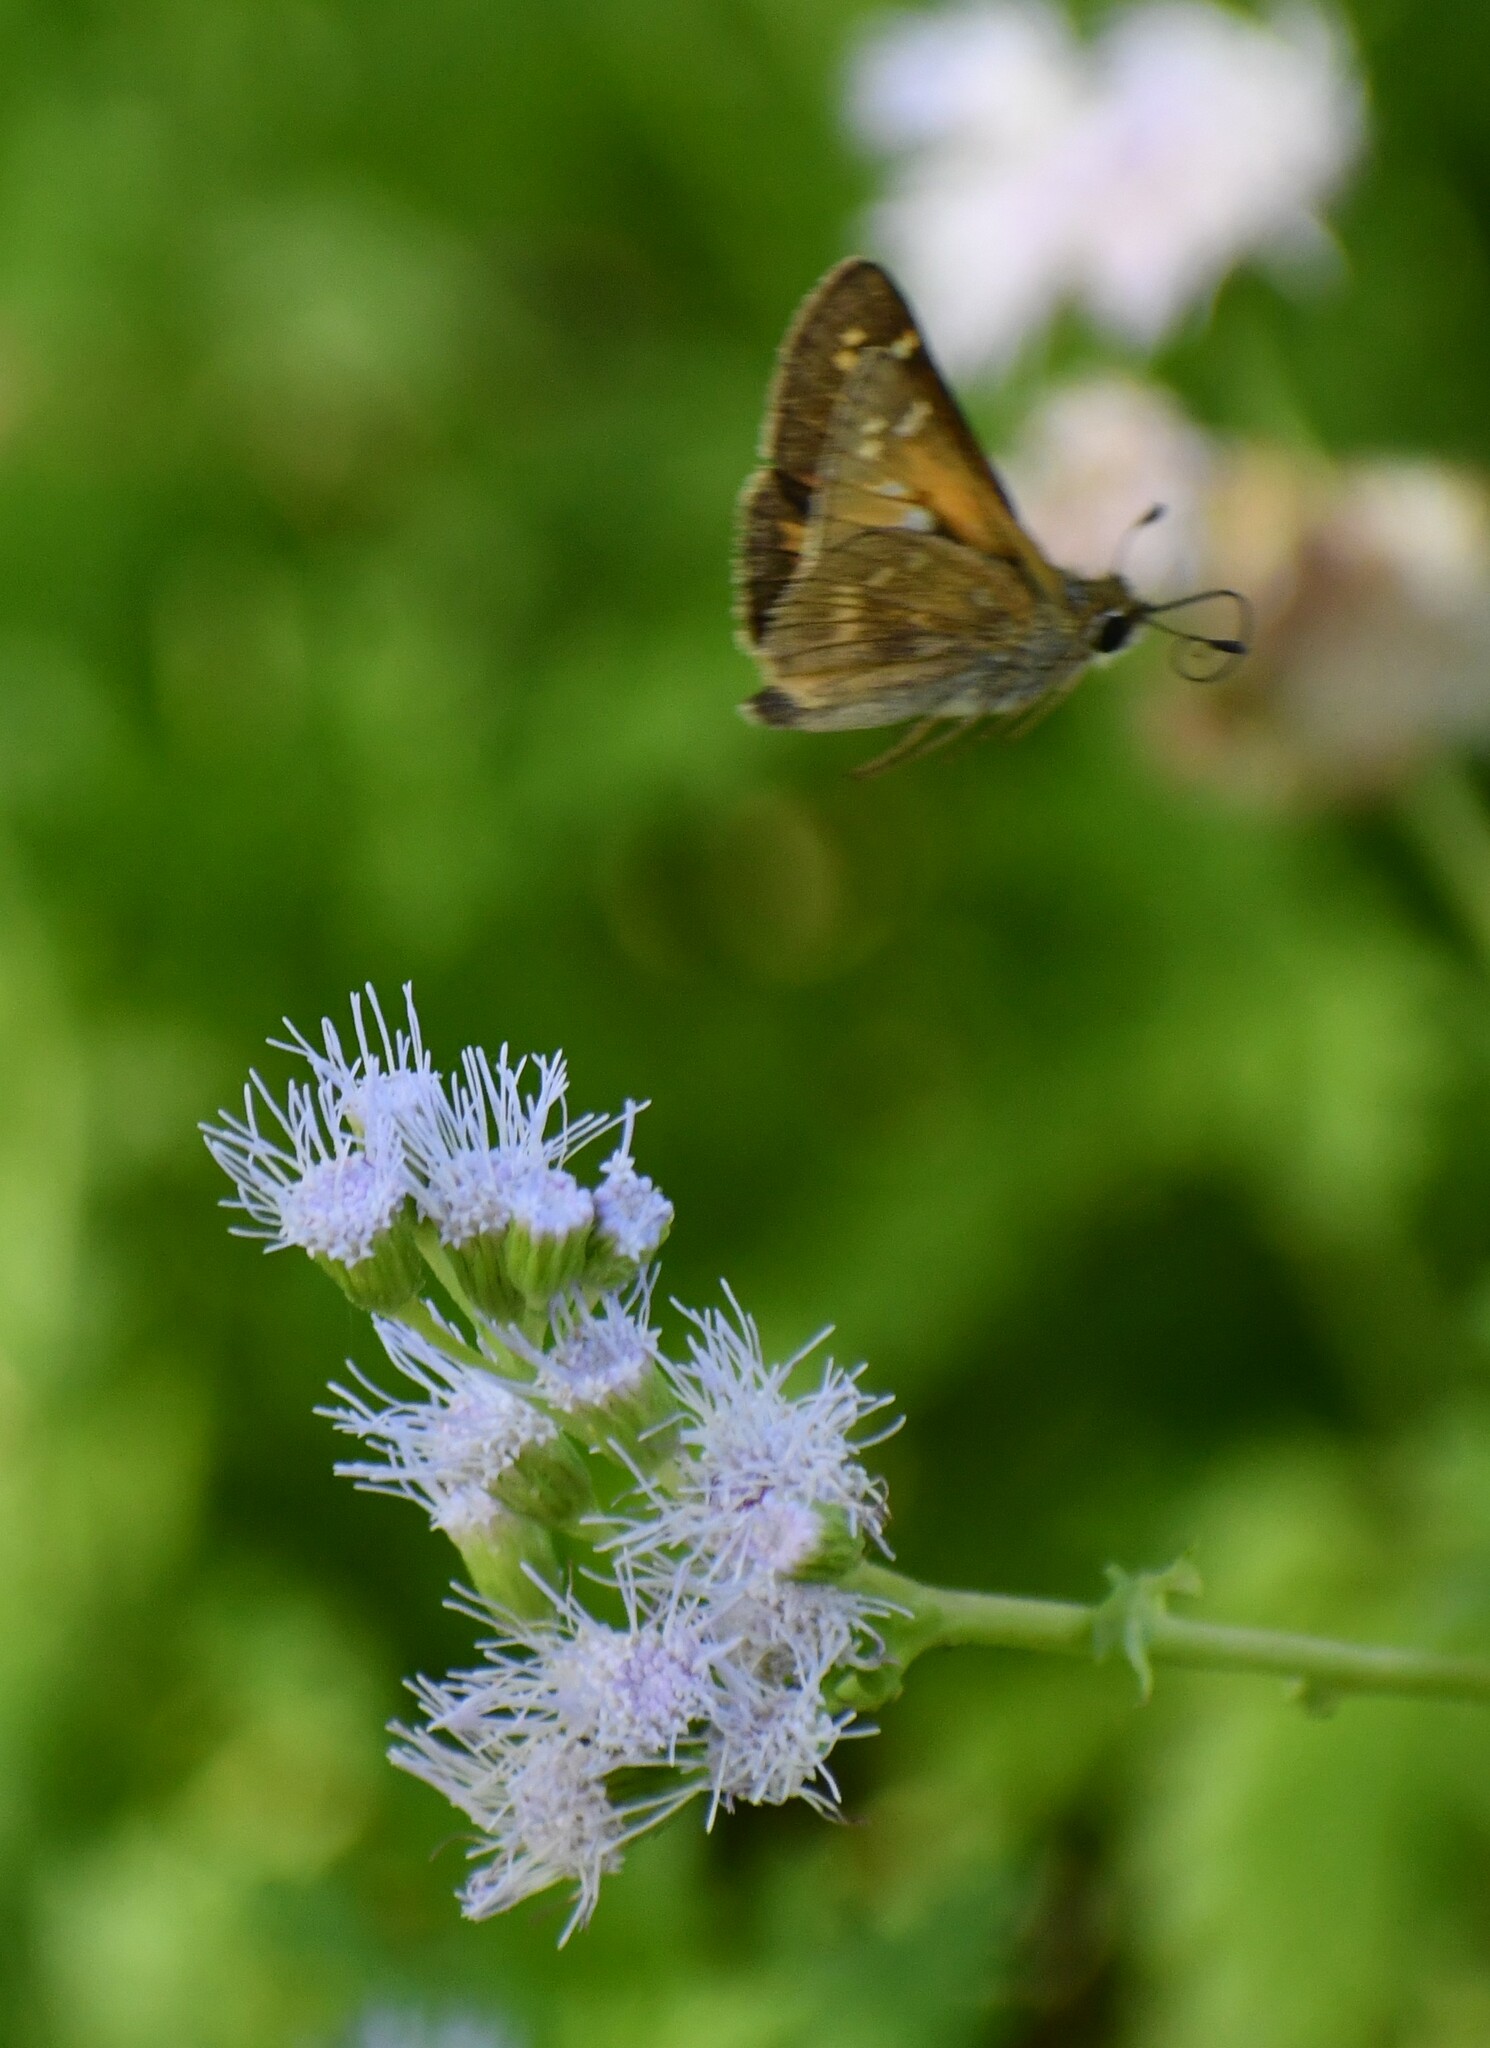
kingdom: Animalia
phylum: Arthropoda
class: Insecta
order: Lepidoptera
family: Hesperiidae
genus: Atalopedes
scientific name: Atalopedes
